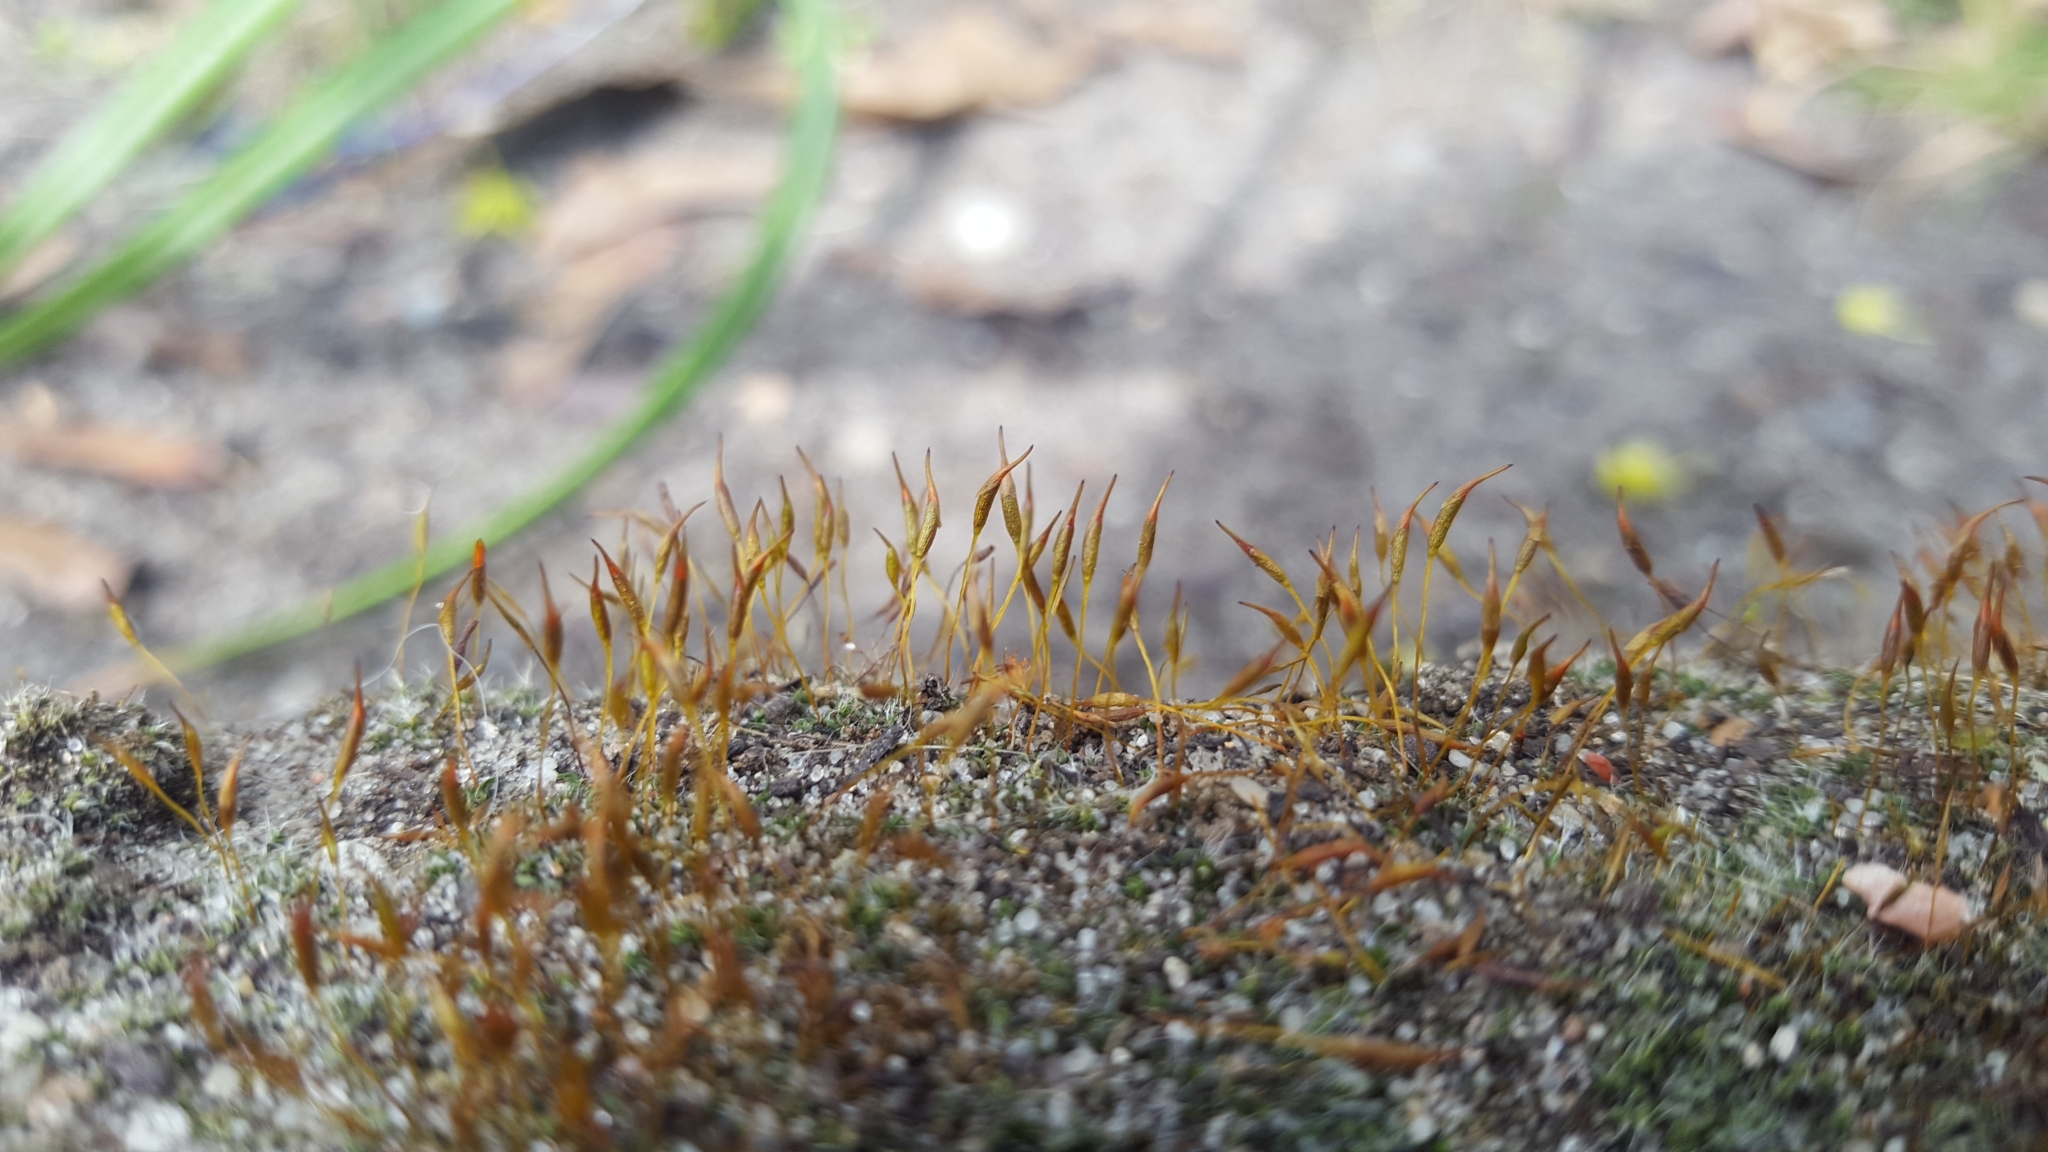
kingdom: Plantae
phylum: Bryophyta
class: Bryopsida
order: Pottiales
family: Pottiaceae
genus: Tortula
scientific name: Tortula muralis
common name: Wall screw-moss
